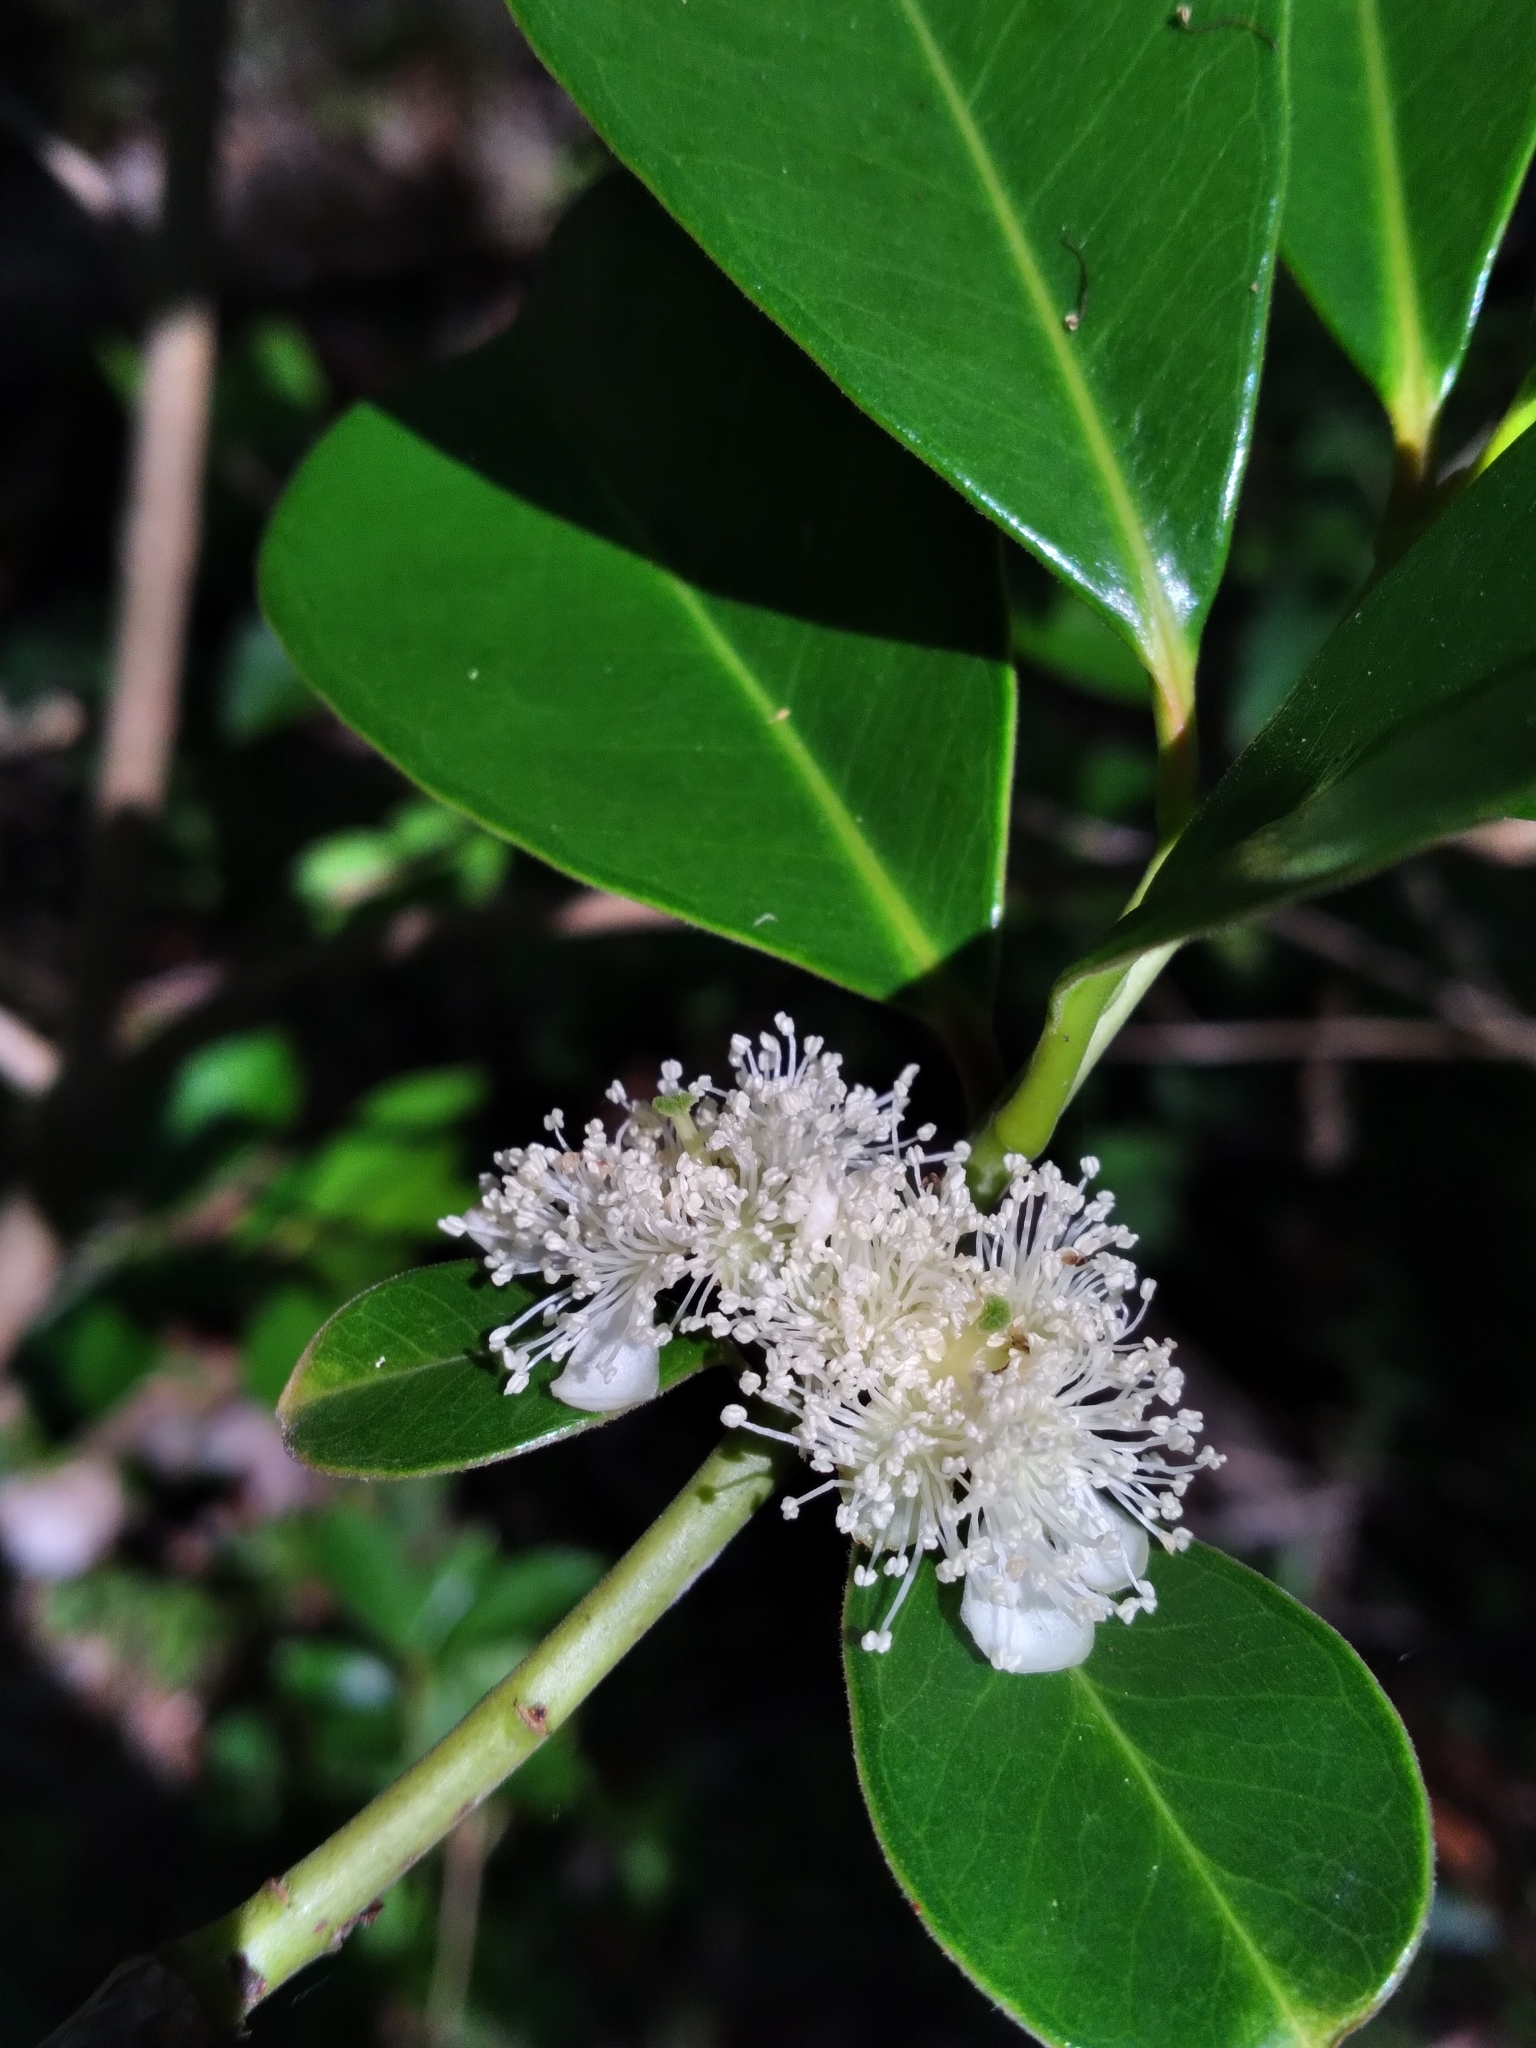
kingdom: Plantae
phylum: Tracheophyta
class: Magnoliopsida
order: Myrtales
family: Myrtaceae
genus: Psidium
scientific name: Psidium cattleianum
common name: Strawberry guava
